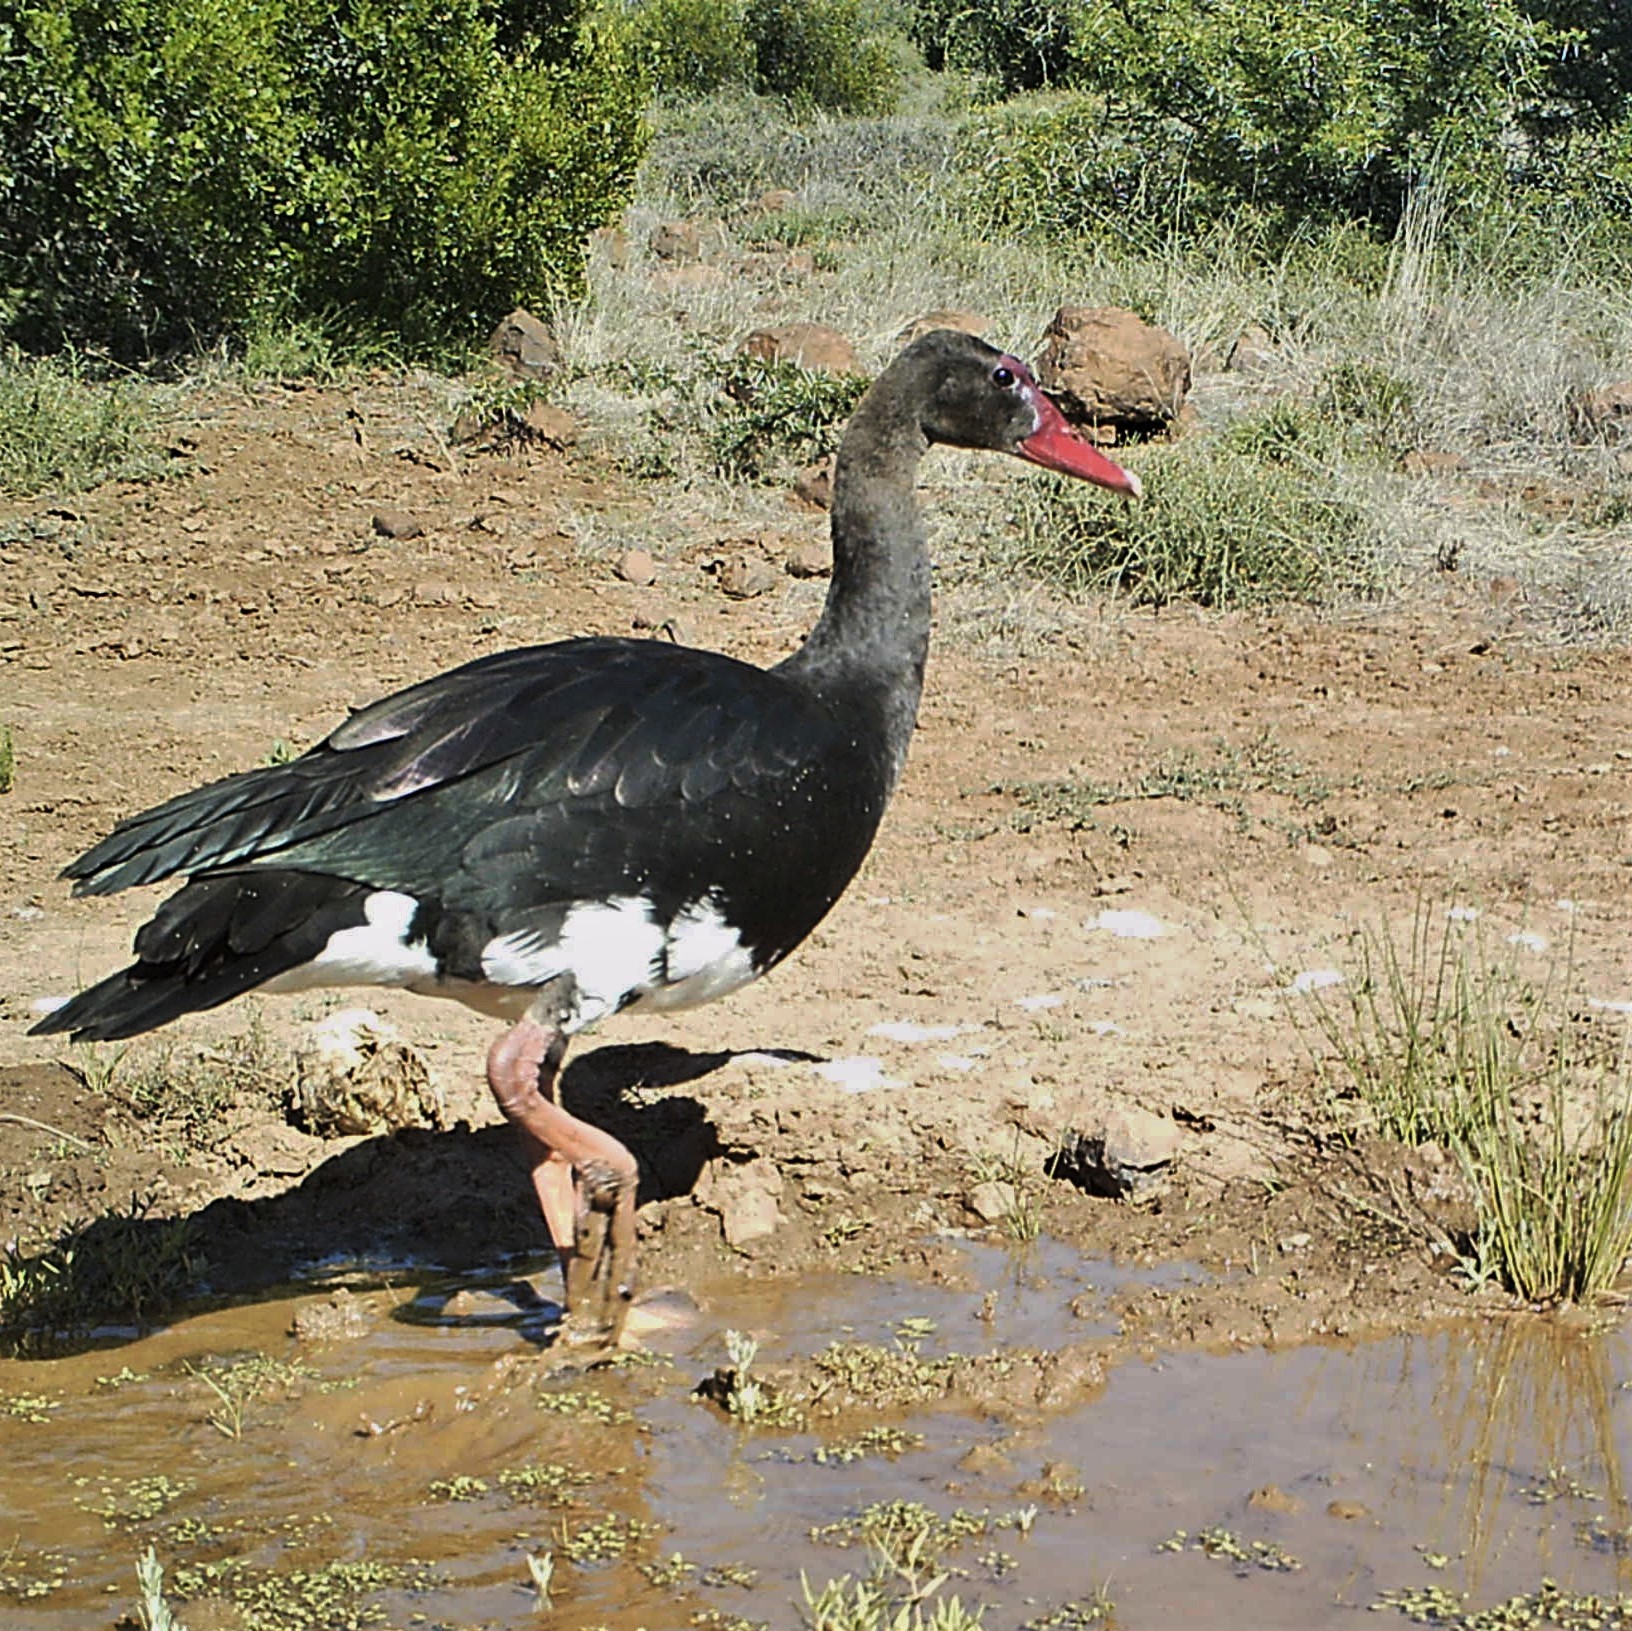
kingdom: Animalia
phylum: Chordata
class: Aves
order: Anseriformes
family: Anatidae
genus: Plectropterus
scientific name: Plectropterus gambensis
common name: Spur-winged goose
